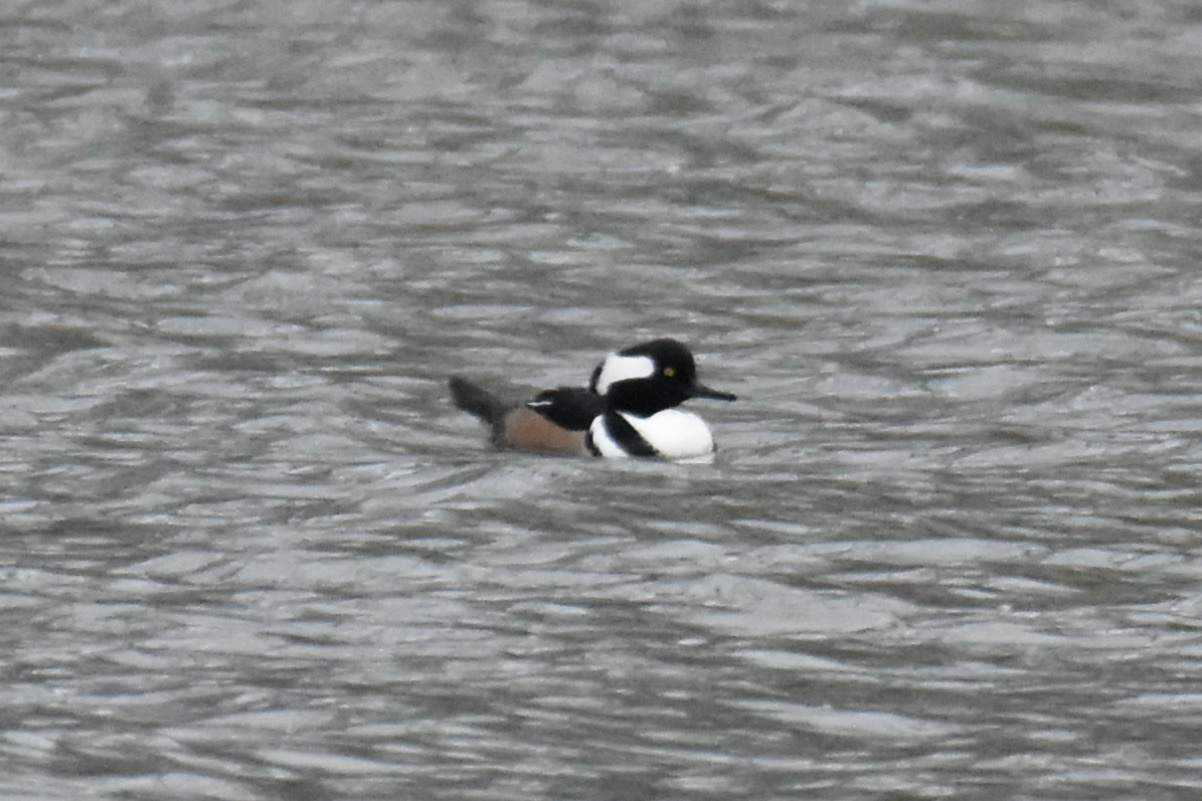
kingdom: Animalia
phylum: Chordata
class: Aves
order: Anseriformes
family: Anatidae
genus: Lophodytes
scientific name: Lophodytes cucullatus
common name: Hooded merganser
